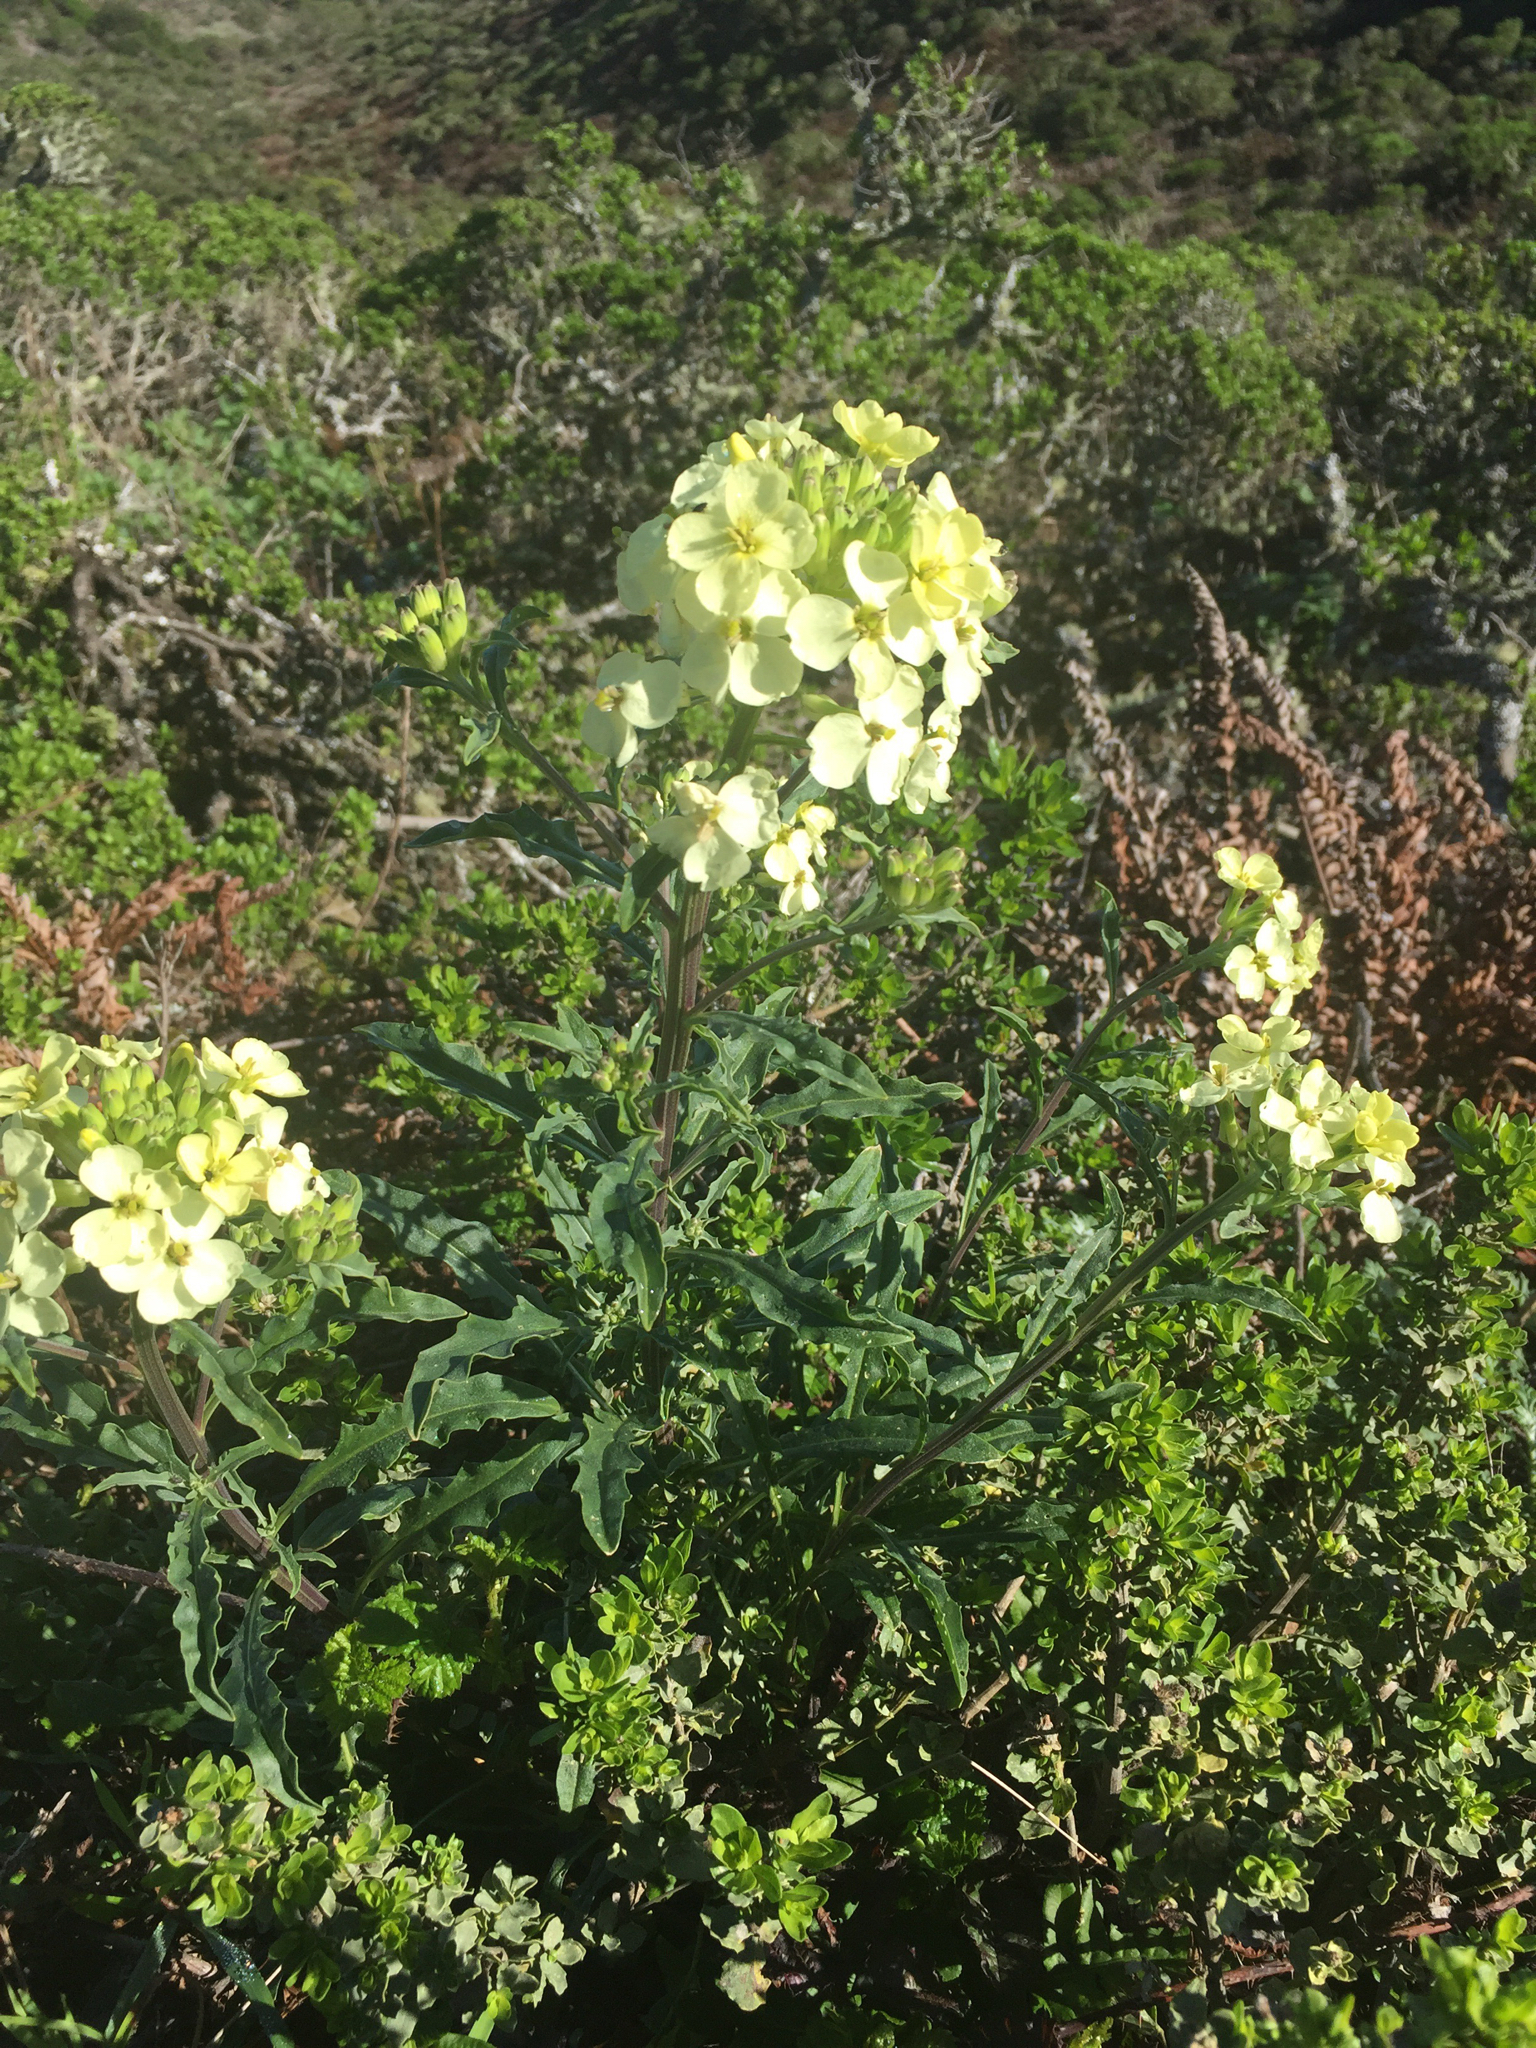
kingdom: Plantae
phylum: Tracheophyta
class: Magnoliopsida
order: Brassicales
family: Brassicaceae
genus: Erysimum
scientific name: Erysimum franciscanum
